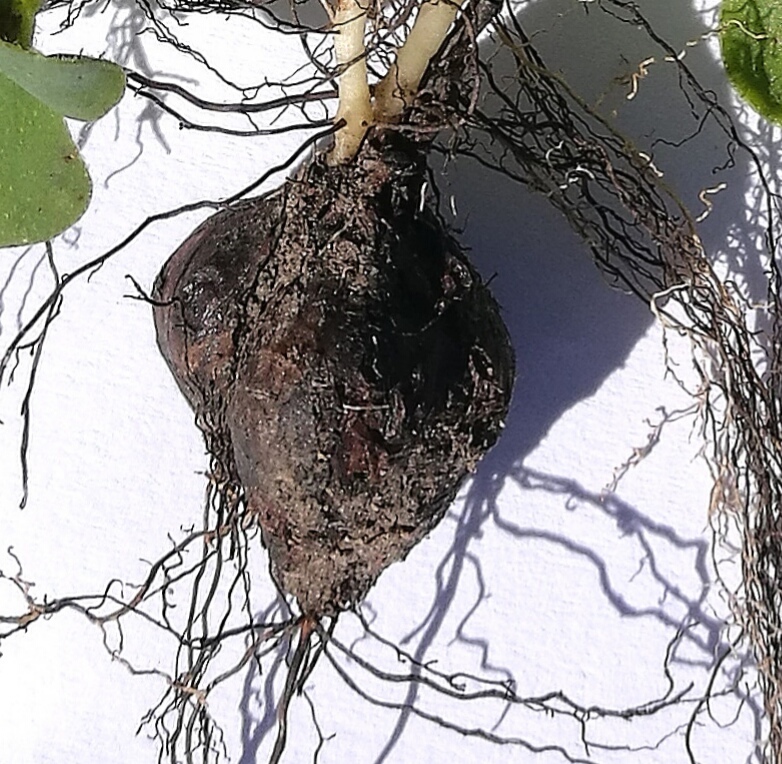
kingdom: Plantae
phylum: Tracheophyta
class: Magnoliopsida
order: Oxalidales
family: Oxalidaceae
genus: Oxalis
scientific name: Oxalis purpurea
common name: Purple woodsorrel
